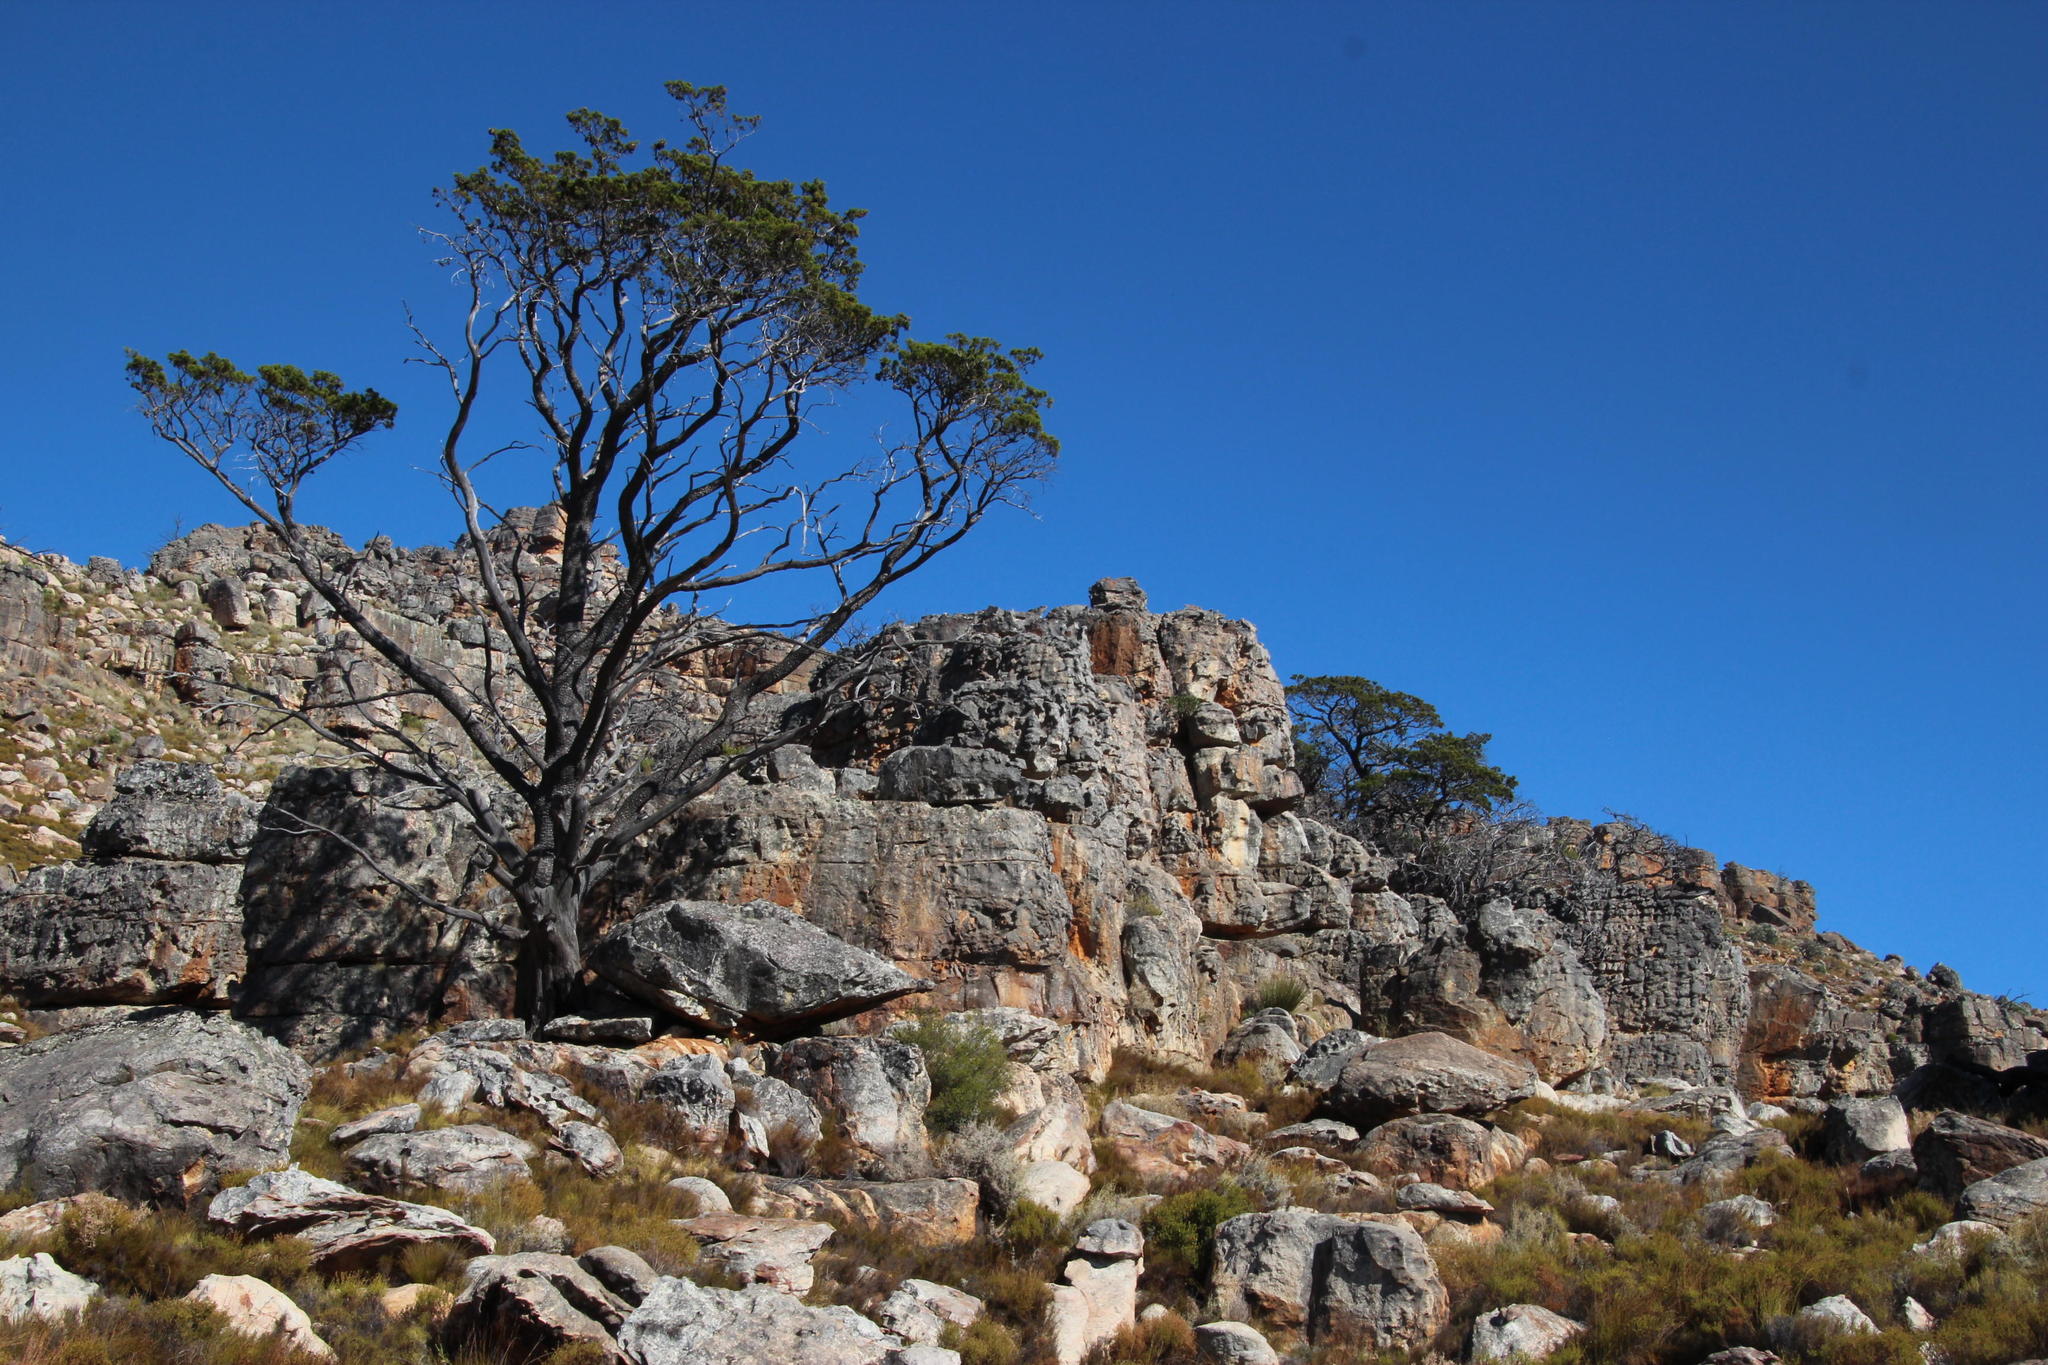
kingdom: Plantae
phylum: Tracheophyta
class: Pinopsida
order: Pinales
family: Cupressaceae
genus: Widdringtonia
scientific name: Widdringtonia nodiflora
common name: Cape cypress
